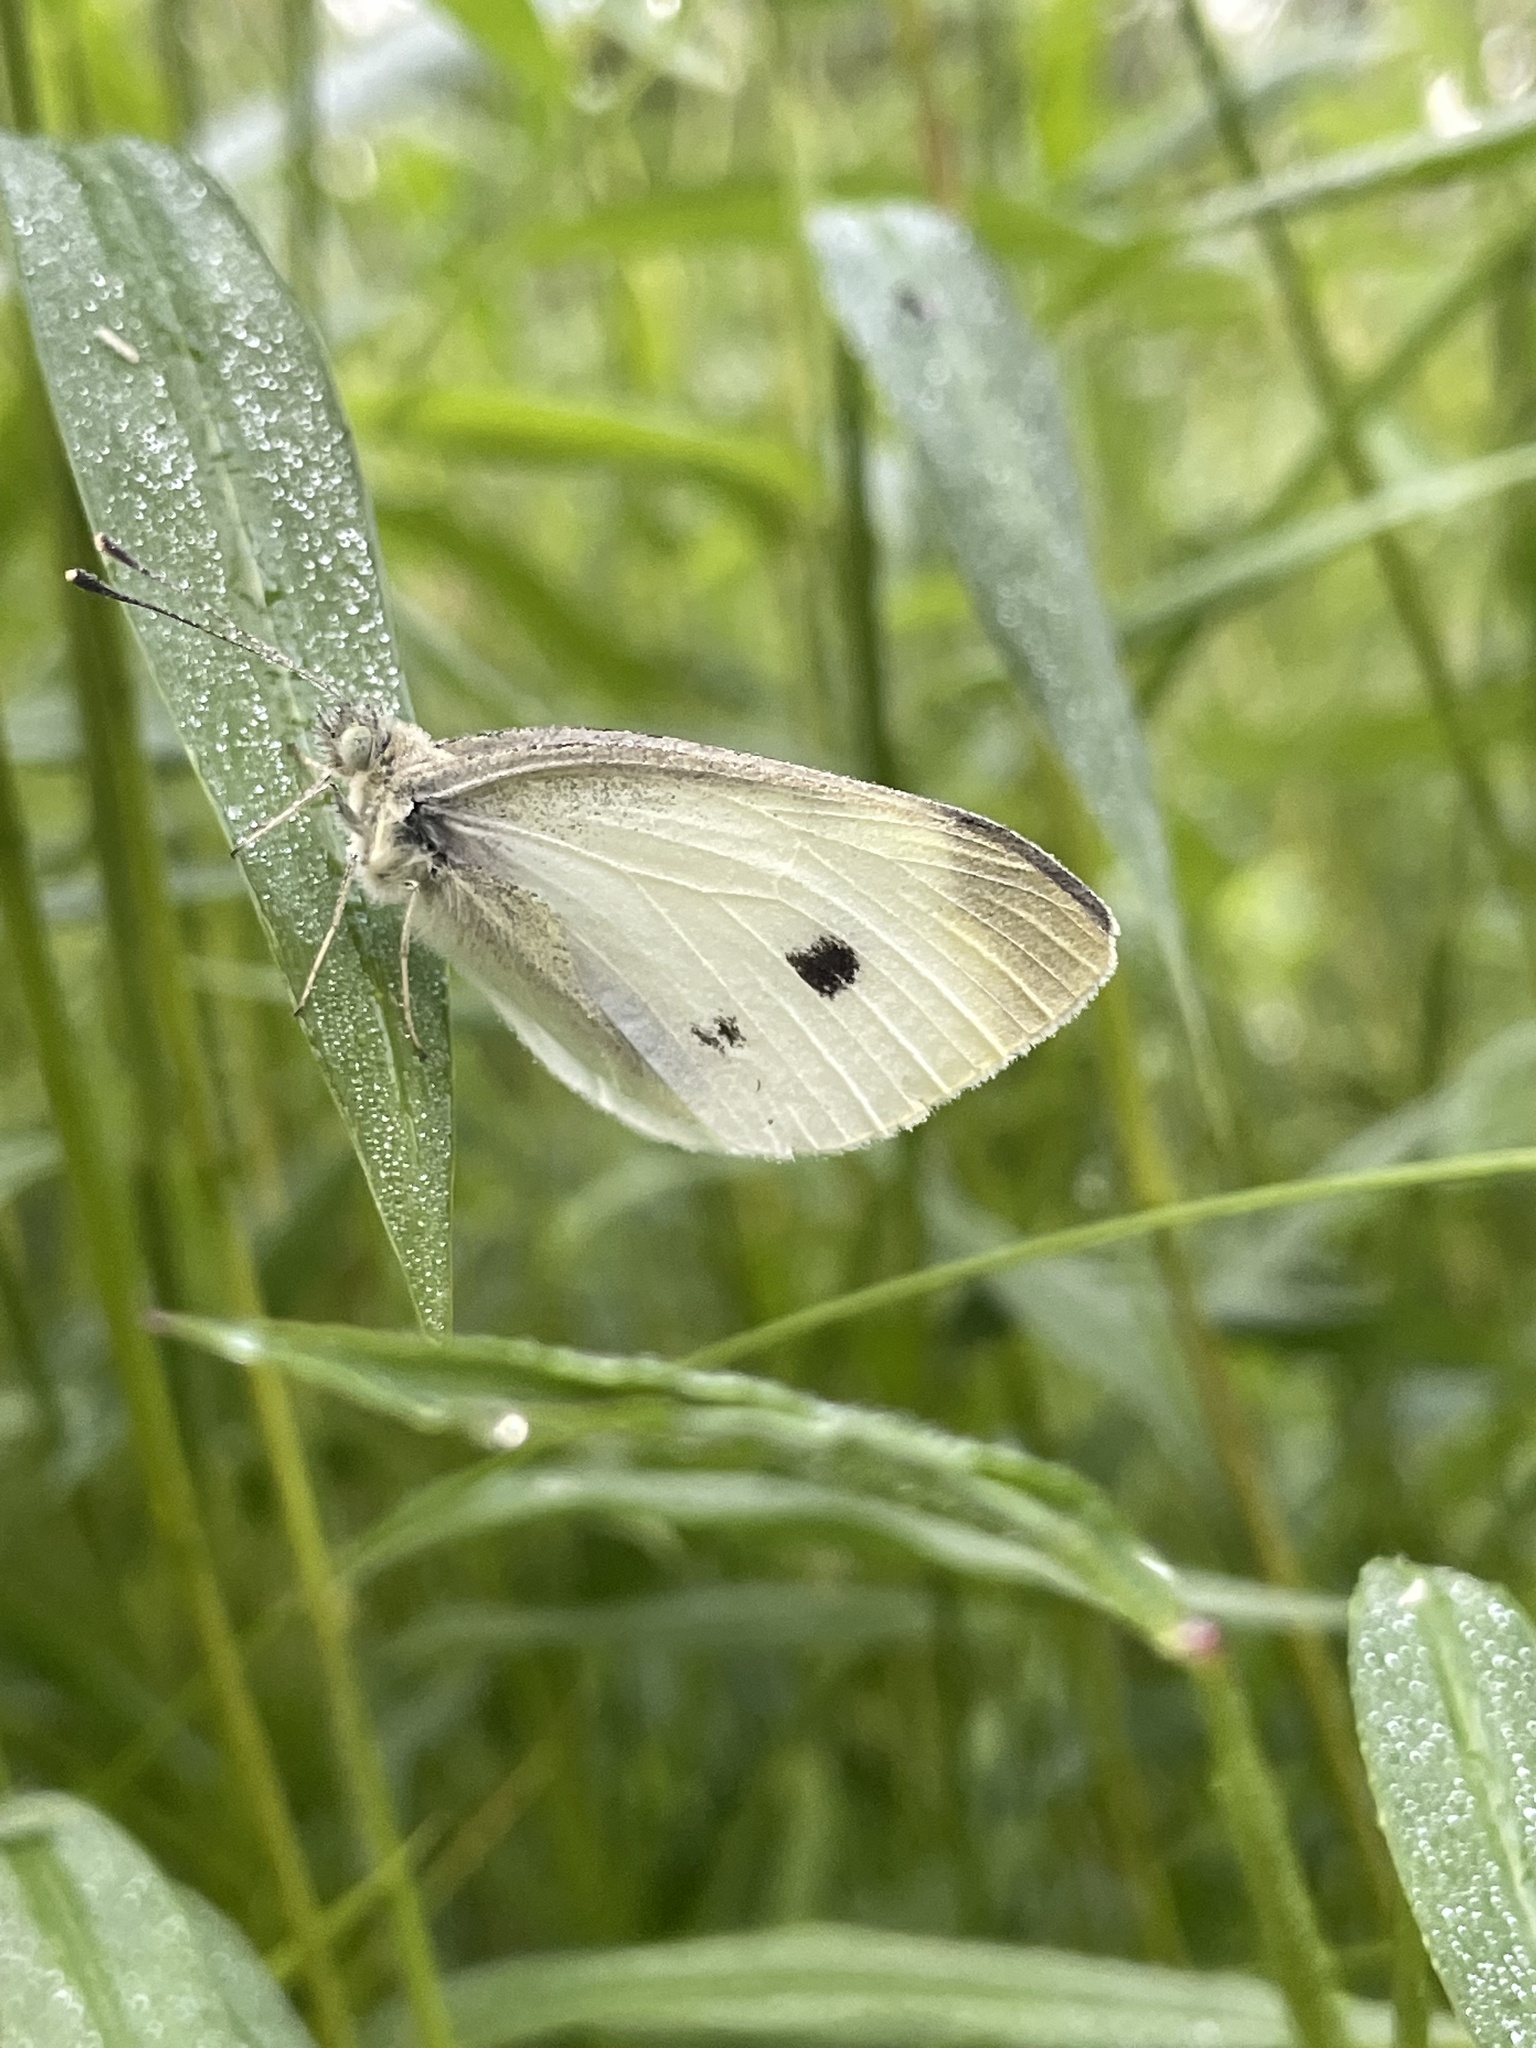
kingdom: Animalia
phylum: Arthropoda
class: Insecta
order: Lepidoptera
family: Pieridae
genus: Pieris
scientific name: Pieris rapae
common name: Small white
